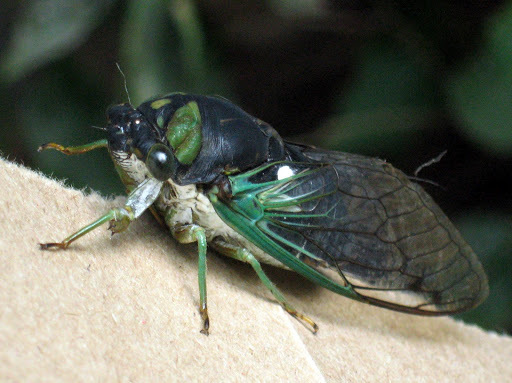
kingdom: Animalia
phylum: Arthropoda
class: Insecta
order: Hemiptera
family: Cicadidae
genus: Neotibicen
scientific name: Neotibicen tibicen
